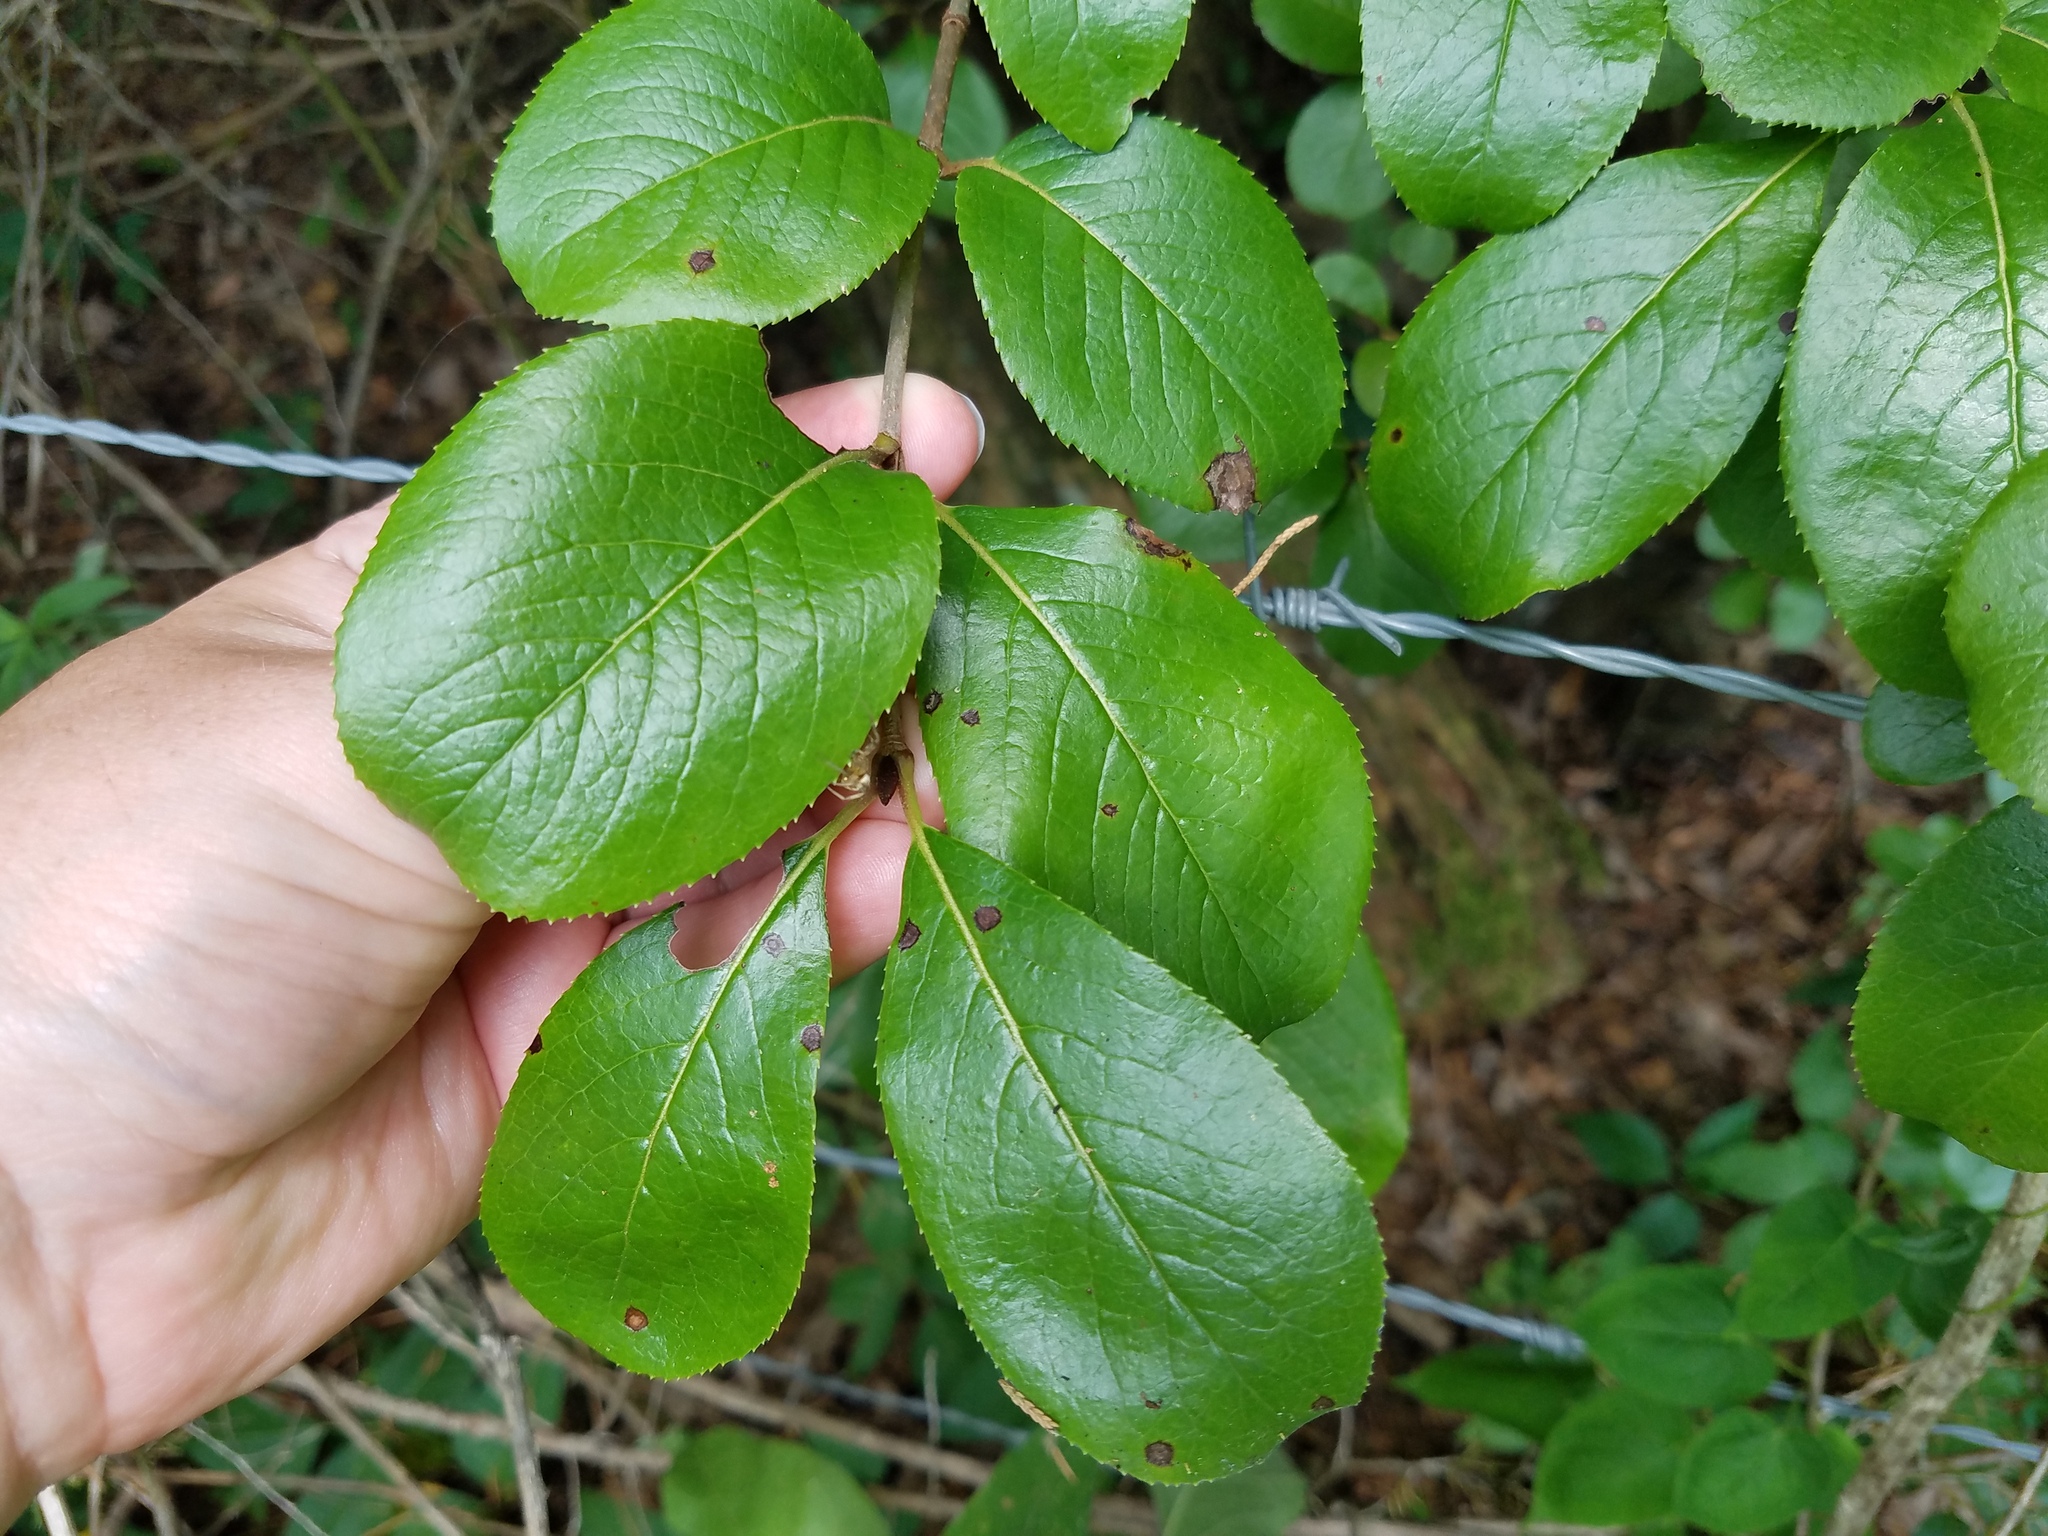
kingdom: Plantae
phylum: Tracheophyta
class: Magnoliopsida
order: Dipsacales
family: Viburnaceae
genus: Viburnum
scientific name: Viburnum rufidulum
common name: Blue haw
